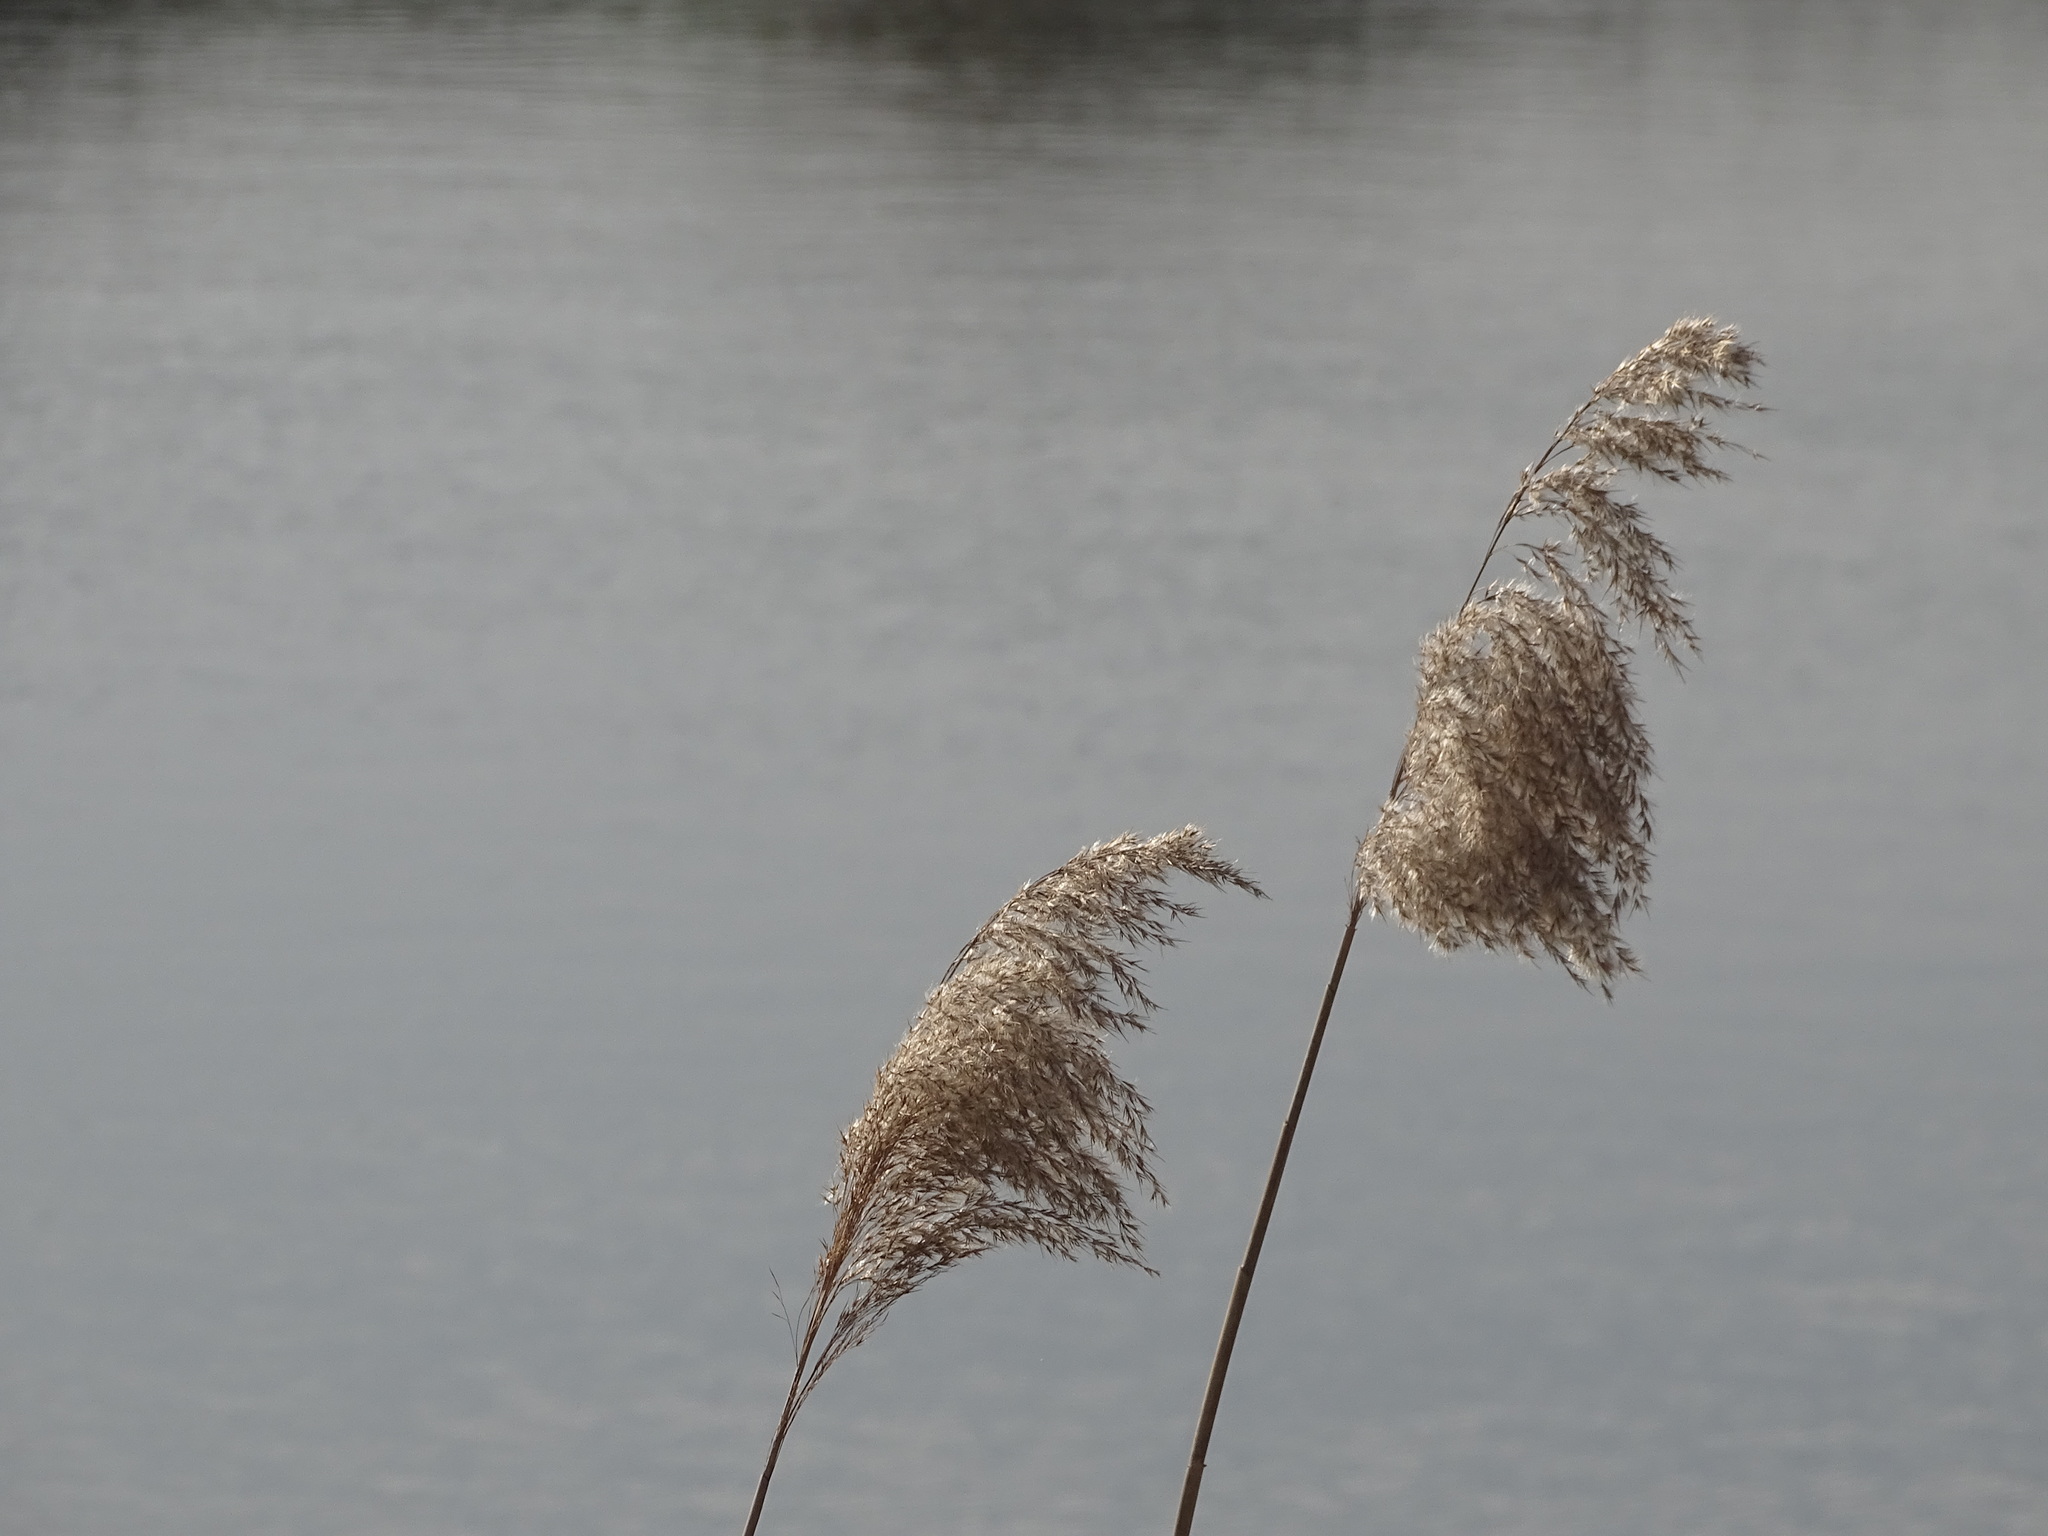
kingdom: Plantae
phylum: Tracheophyta
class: Liliopsida
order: Poales
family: Poaceae
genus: Phragmites
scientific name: Phragmites australis
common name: Common reed
